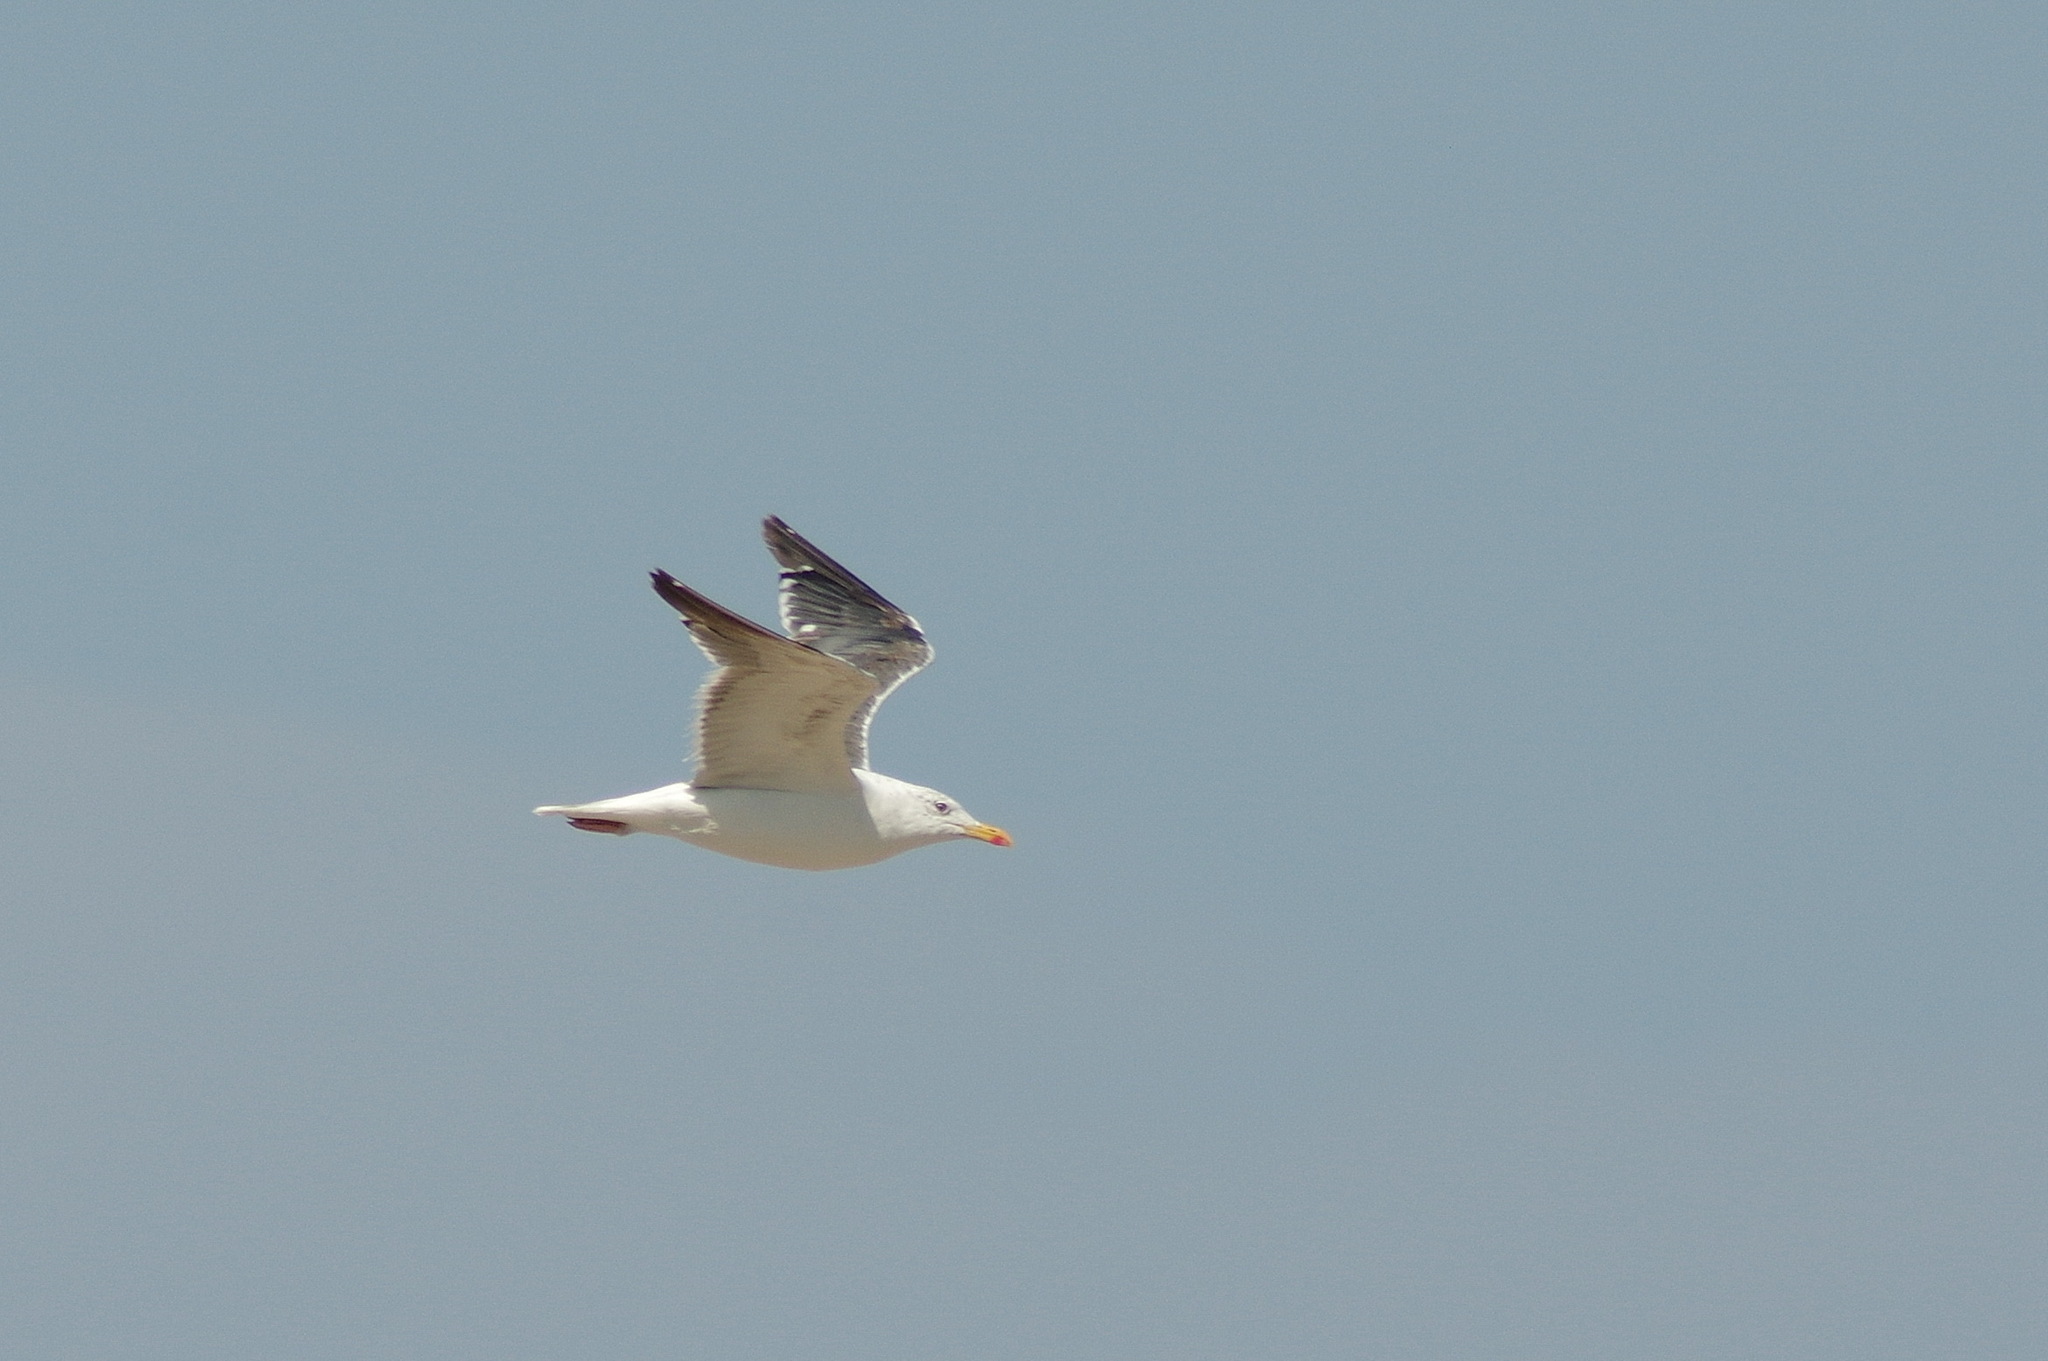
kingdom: Animalia
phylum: Chordata
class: Aves
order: Charadriiformes
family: Laridae
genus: Larus
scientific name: Larus fuscus
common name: Lesser black-backed gull
